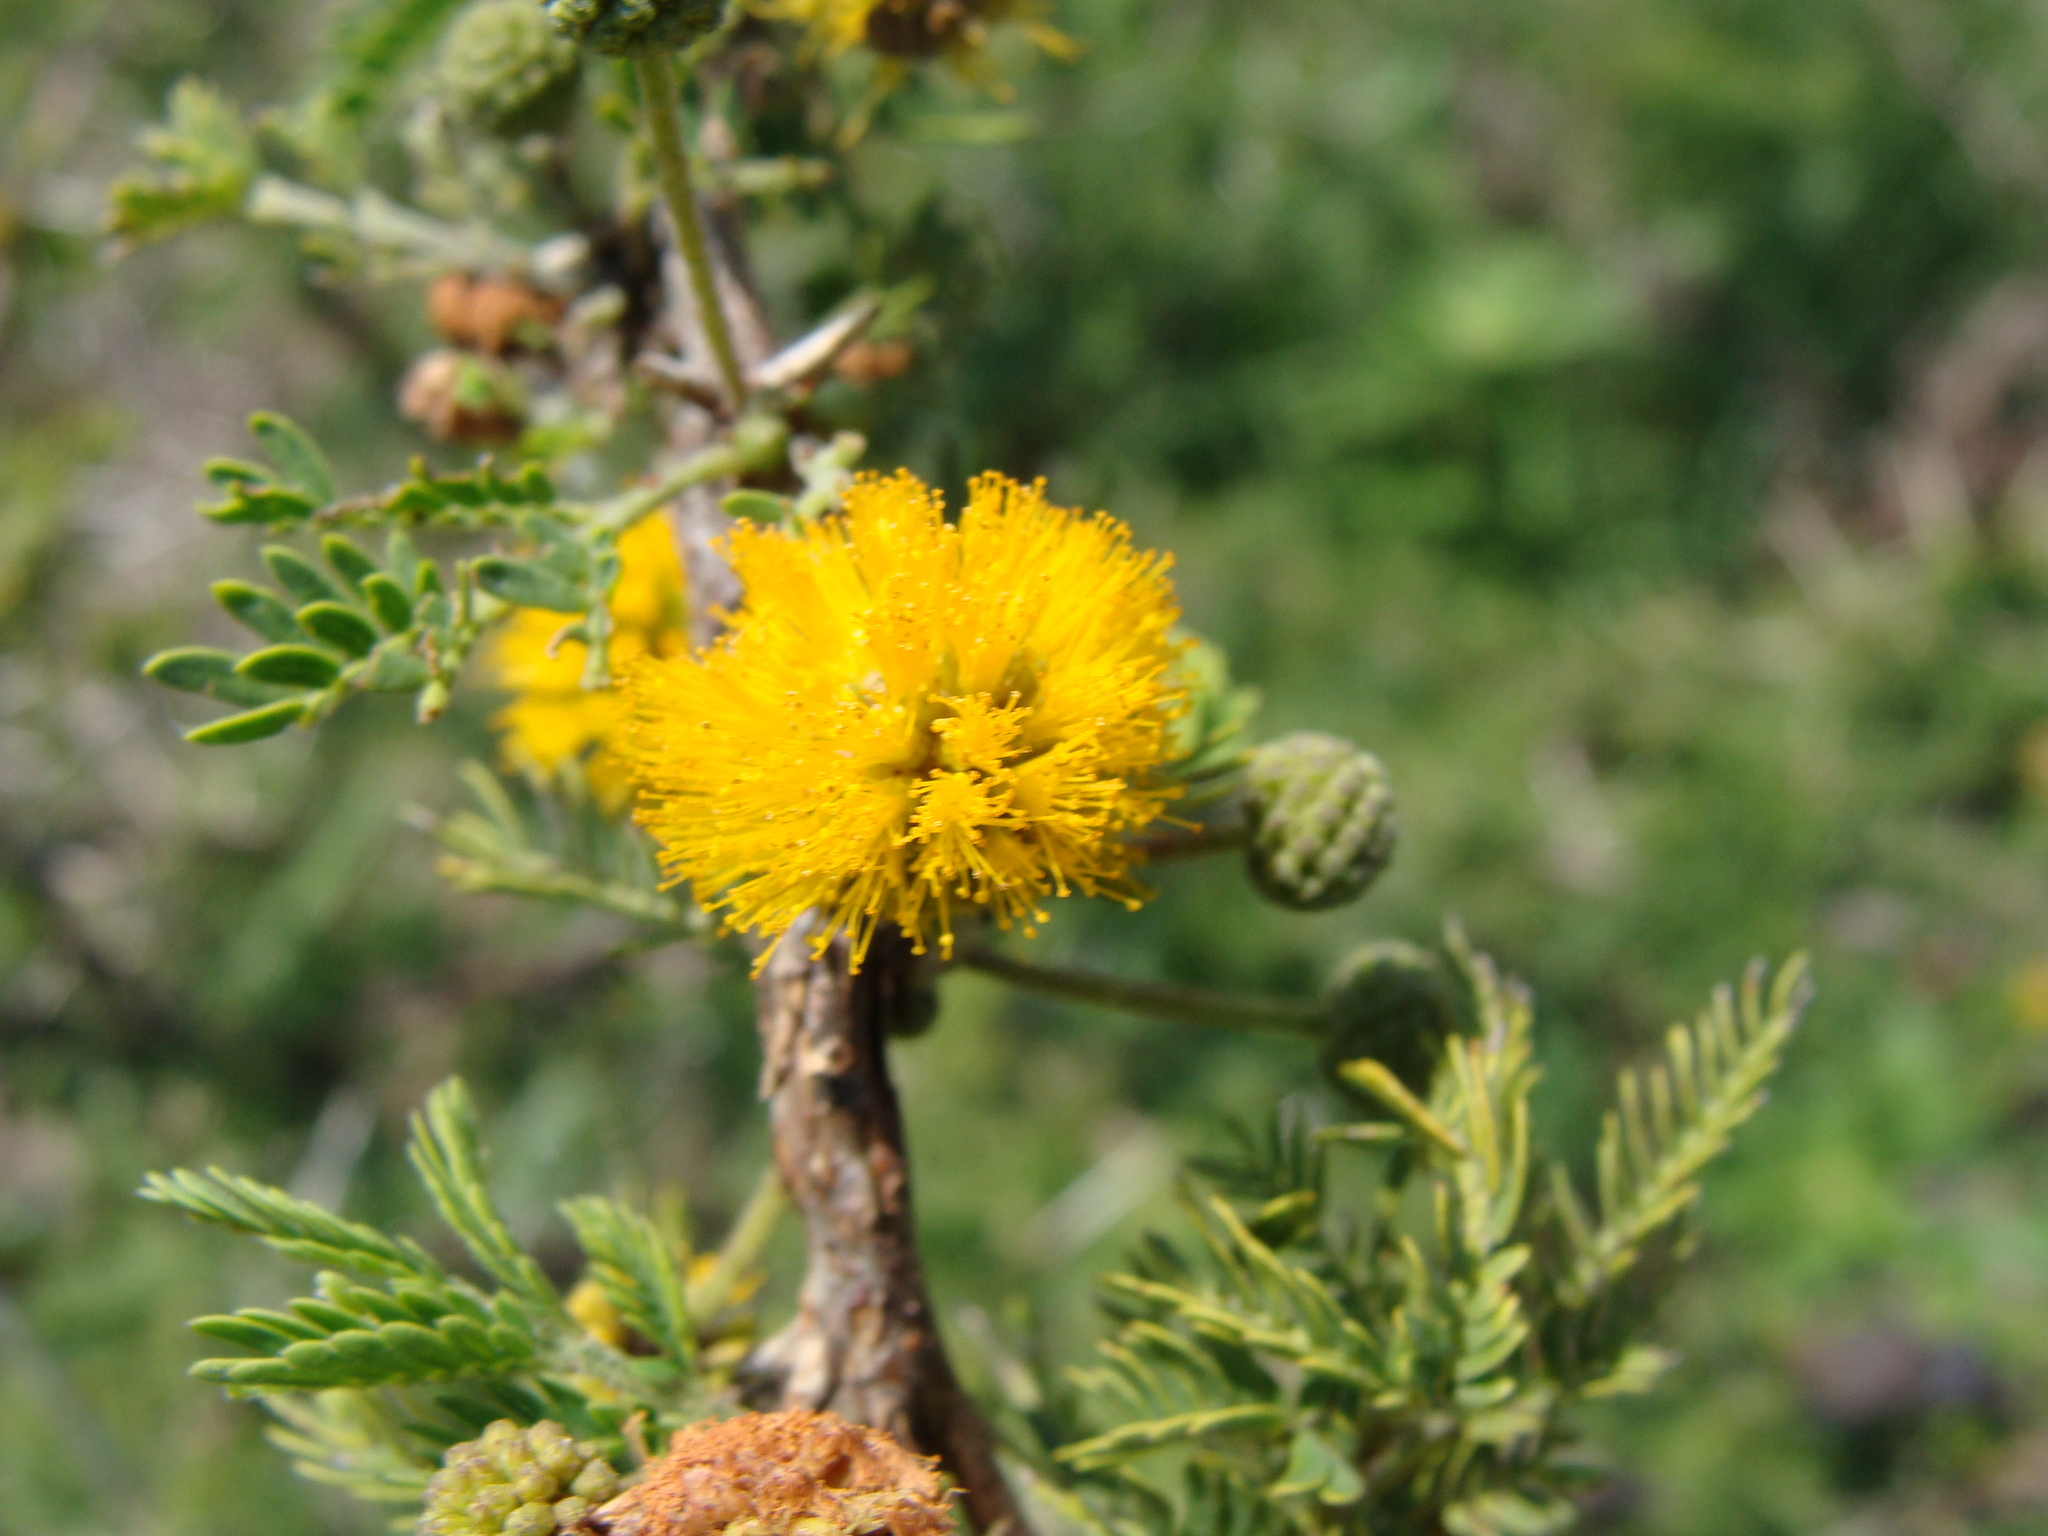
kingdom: Plantae
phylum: Tracheophyta
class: Magnoliopsida
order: Fabales
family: Fabaceae
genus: Vachellia
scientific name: Vachellia farnesiana
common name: Sweet acacia
